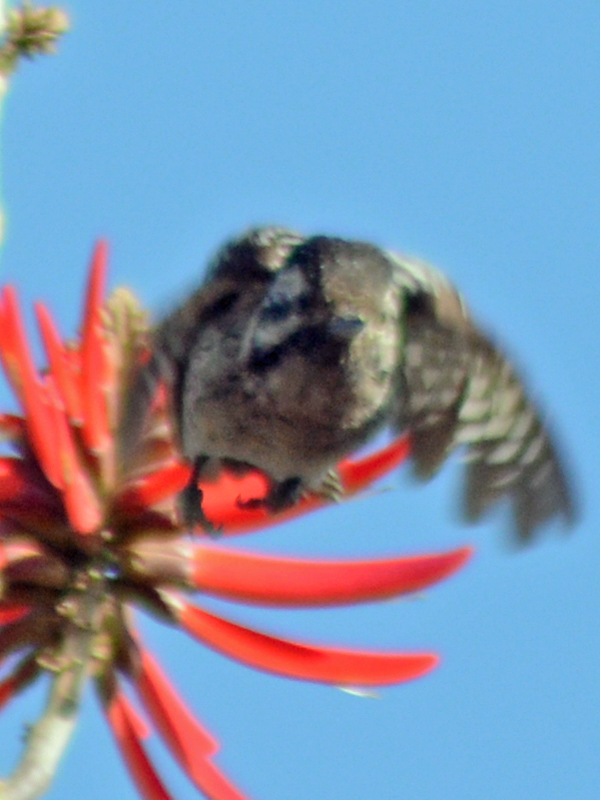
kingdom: Animalia
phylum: Chordata
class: Aves
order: Piciformes
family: Picidae
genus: Dryobates
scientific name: Dryobates scalaris
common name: Ladder-backed woodpecker
